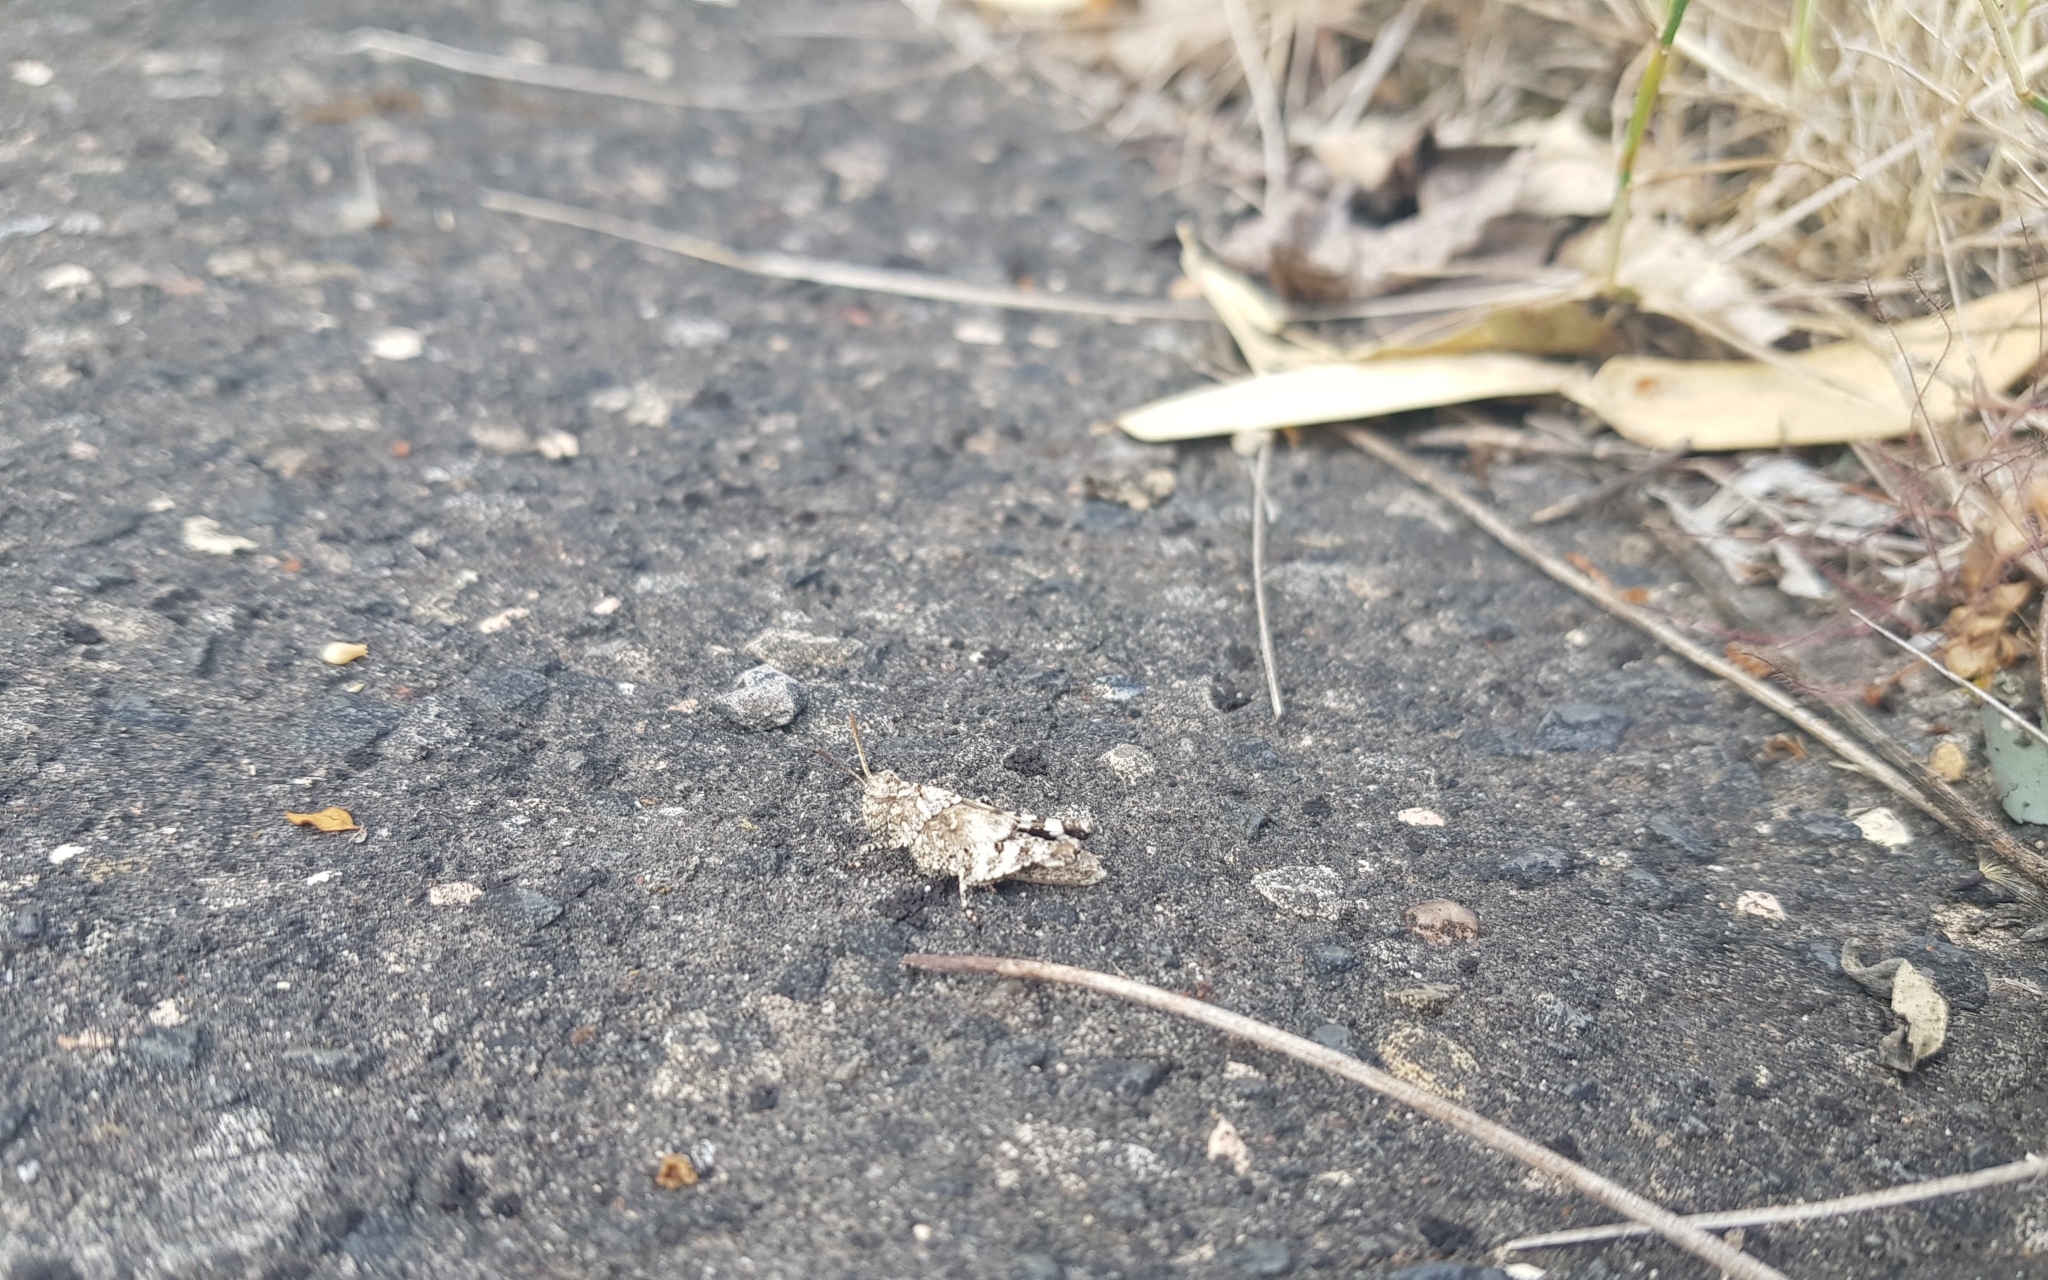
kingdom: Animalia
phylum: Arthropoda
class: Insecta
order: Orthoptera
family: Acrididae
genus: Oedipoda
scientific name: Oedipoda caerulescens
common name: Blue-winged grasshopper
